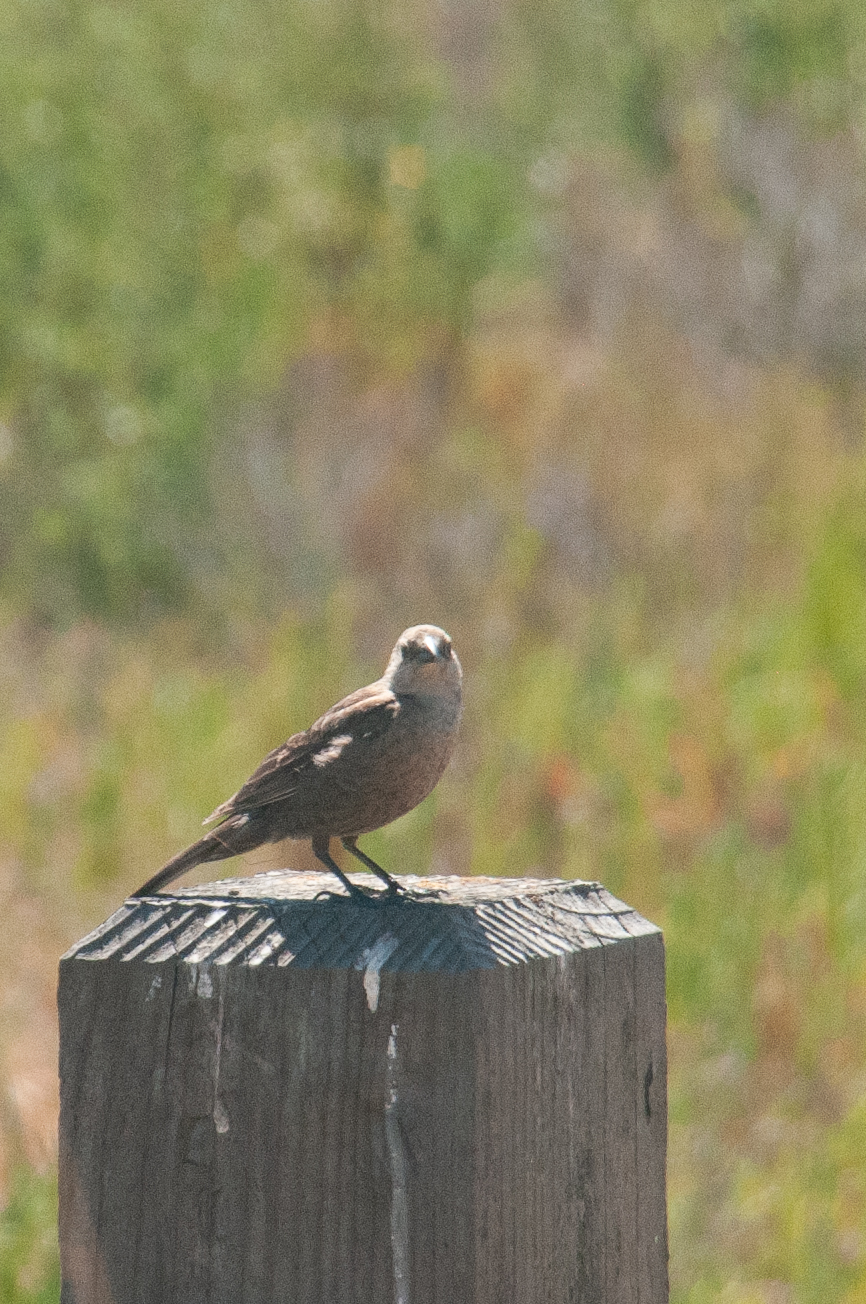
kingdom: Animalia
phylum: Chordata
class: Aves
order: Passeriformes
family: Icteridae
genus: Molothrus
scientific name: Molothrus ater
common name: Brown-headed cowbird
